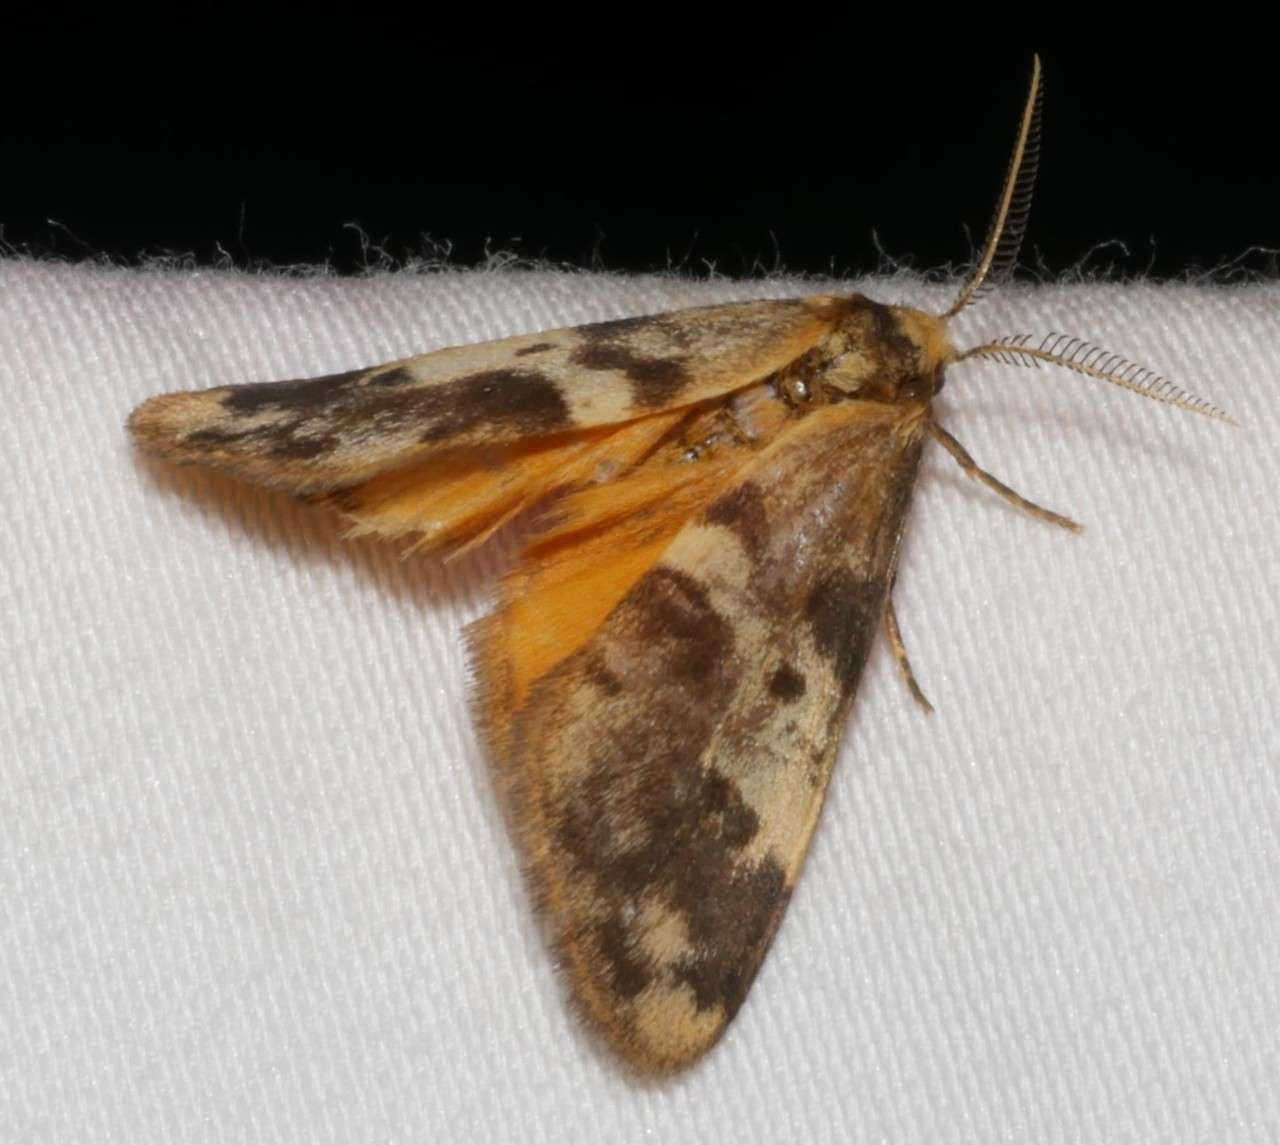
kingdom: Animalia
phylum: Arthropoda
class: Insecta
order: Lepidoptera
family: Erebidae
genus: Anestia
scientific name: Anestia
